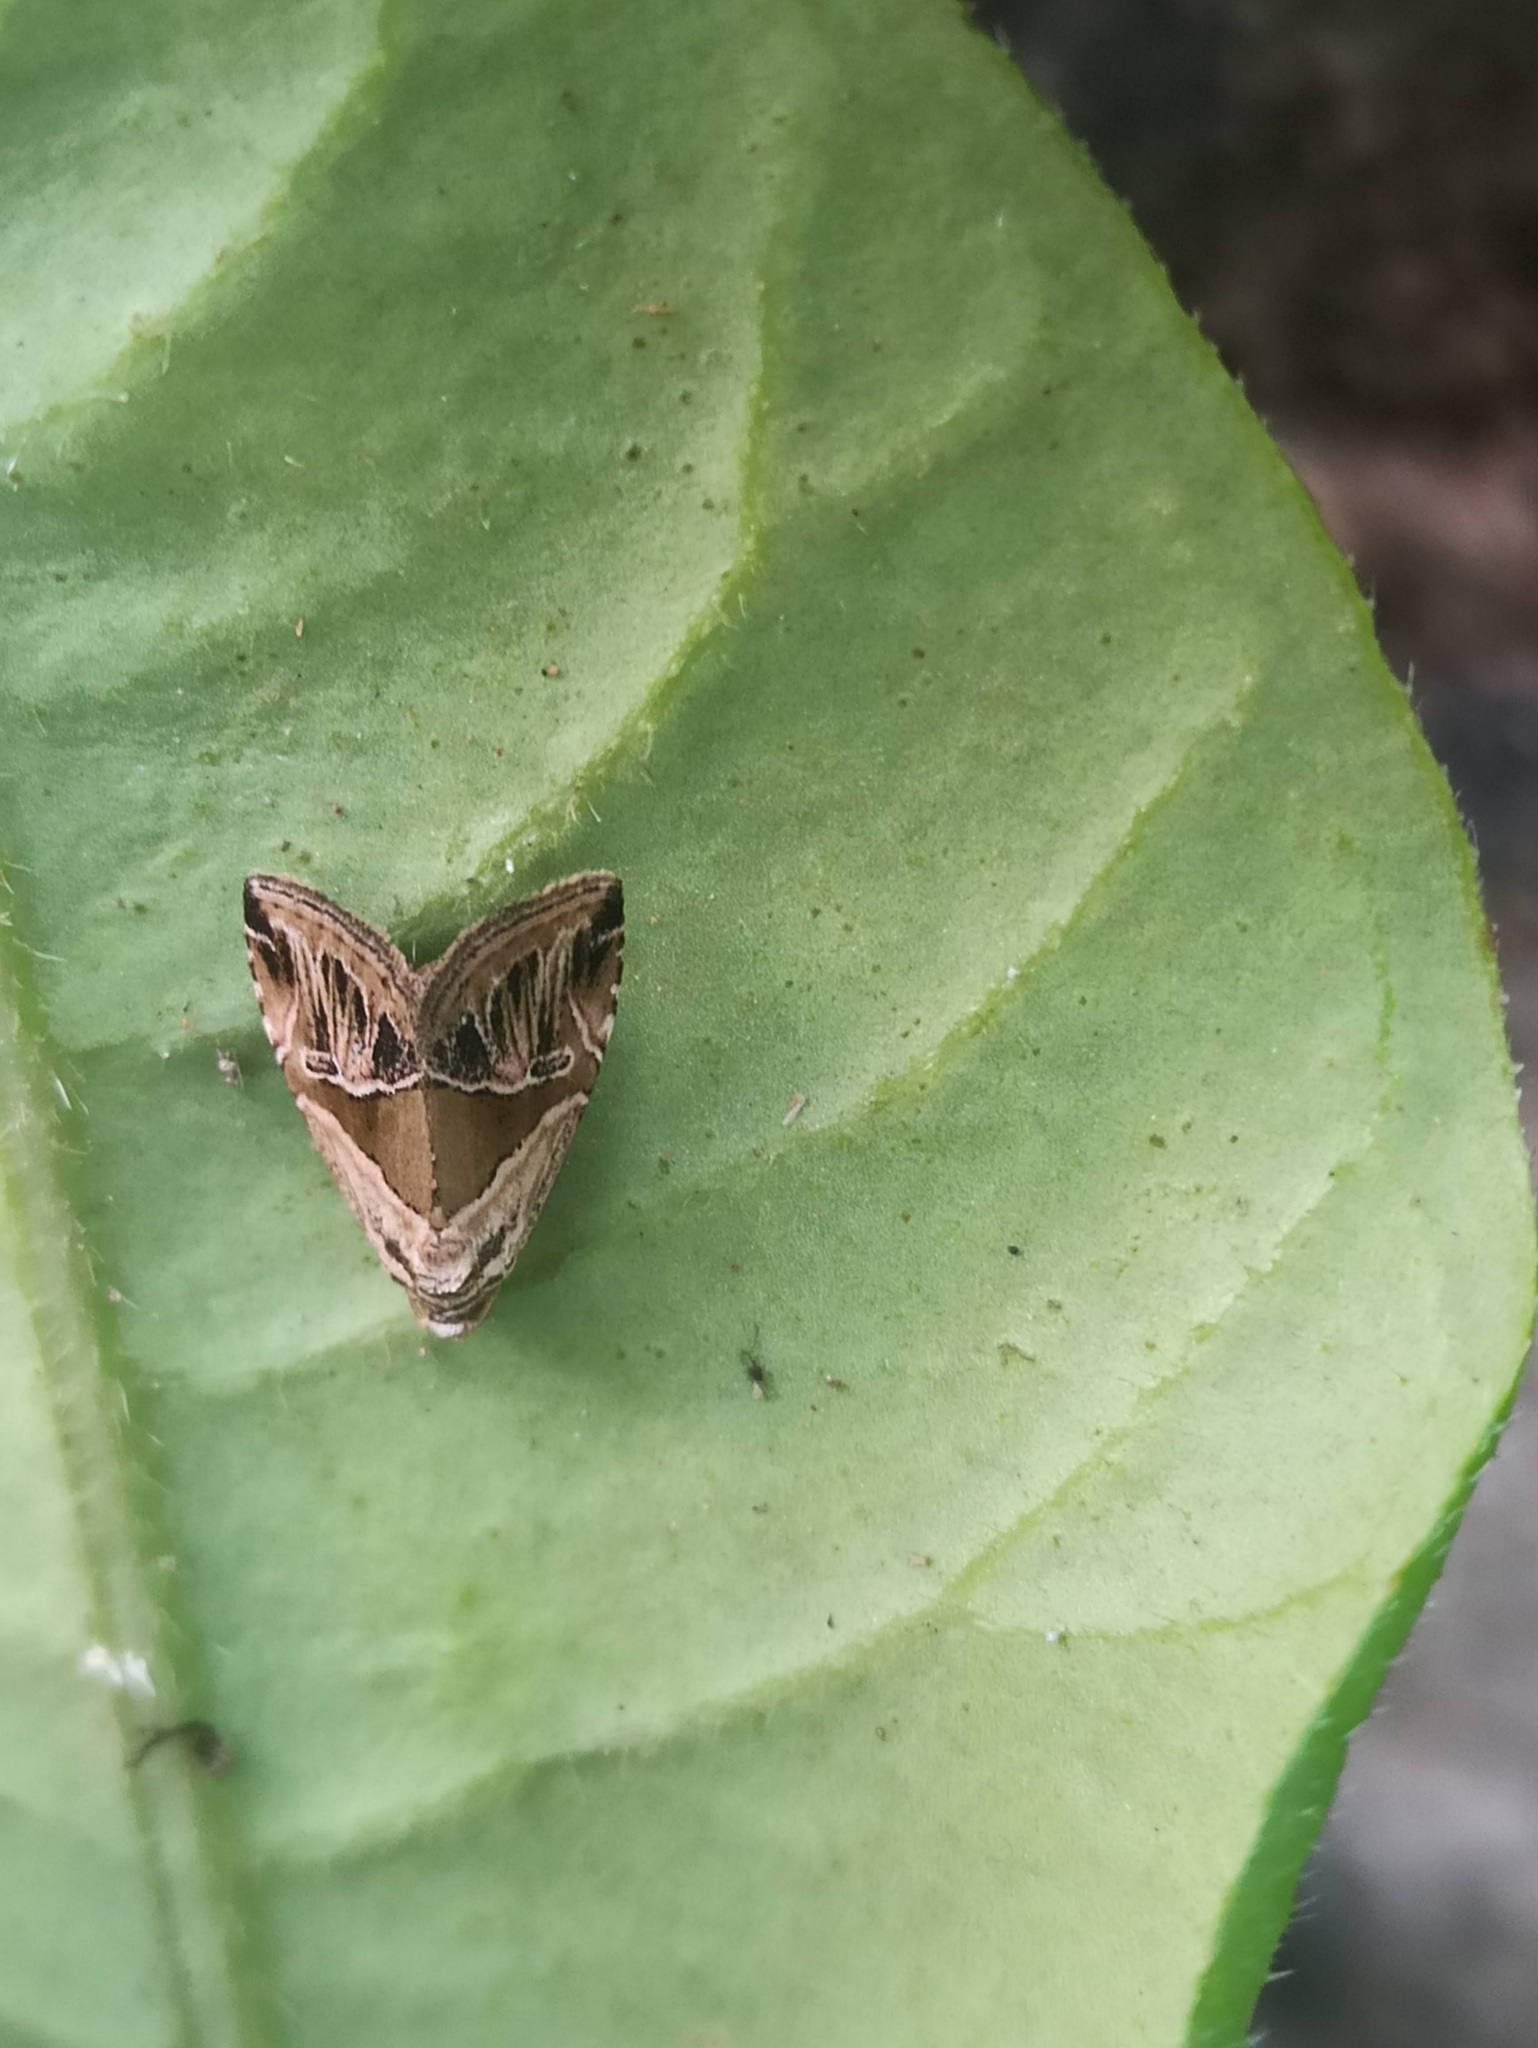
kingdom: Animalia
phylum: Arthropoda
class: Insecta
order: Lepidoptera
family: Noctuidae
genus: Maliattha
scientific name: Maliattha separata
